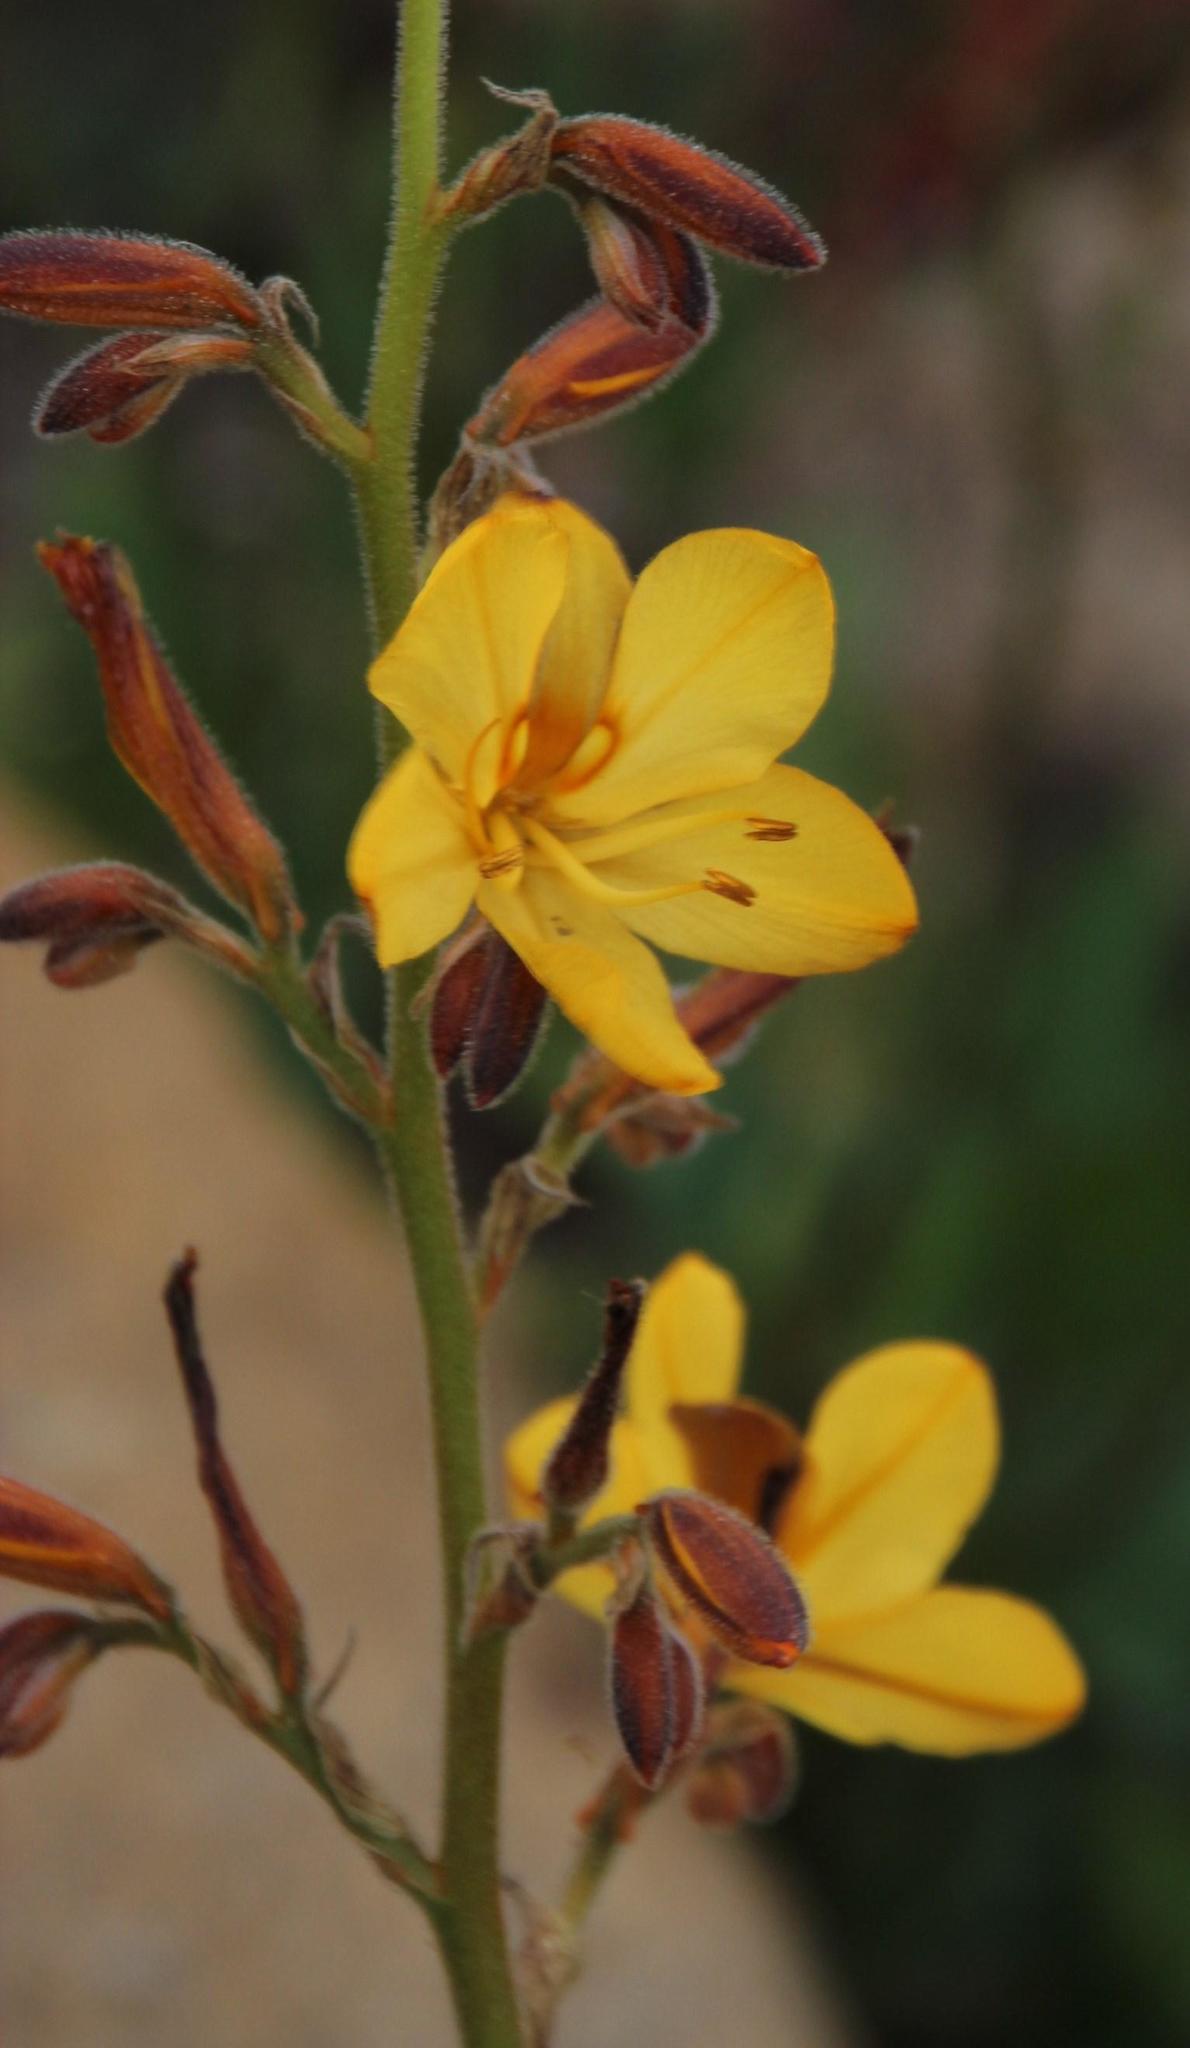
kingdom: Plantae
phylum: Tracheophyta
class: Liliopsida
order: Commelinales
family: Haemodoraceae
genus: Wachendorfia
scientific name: Wachendorfia paniculata
